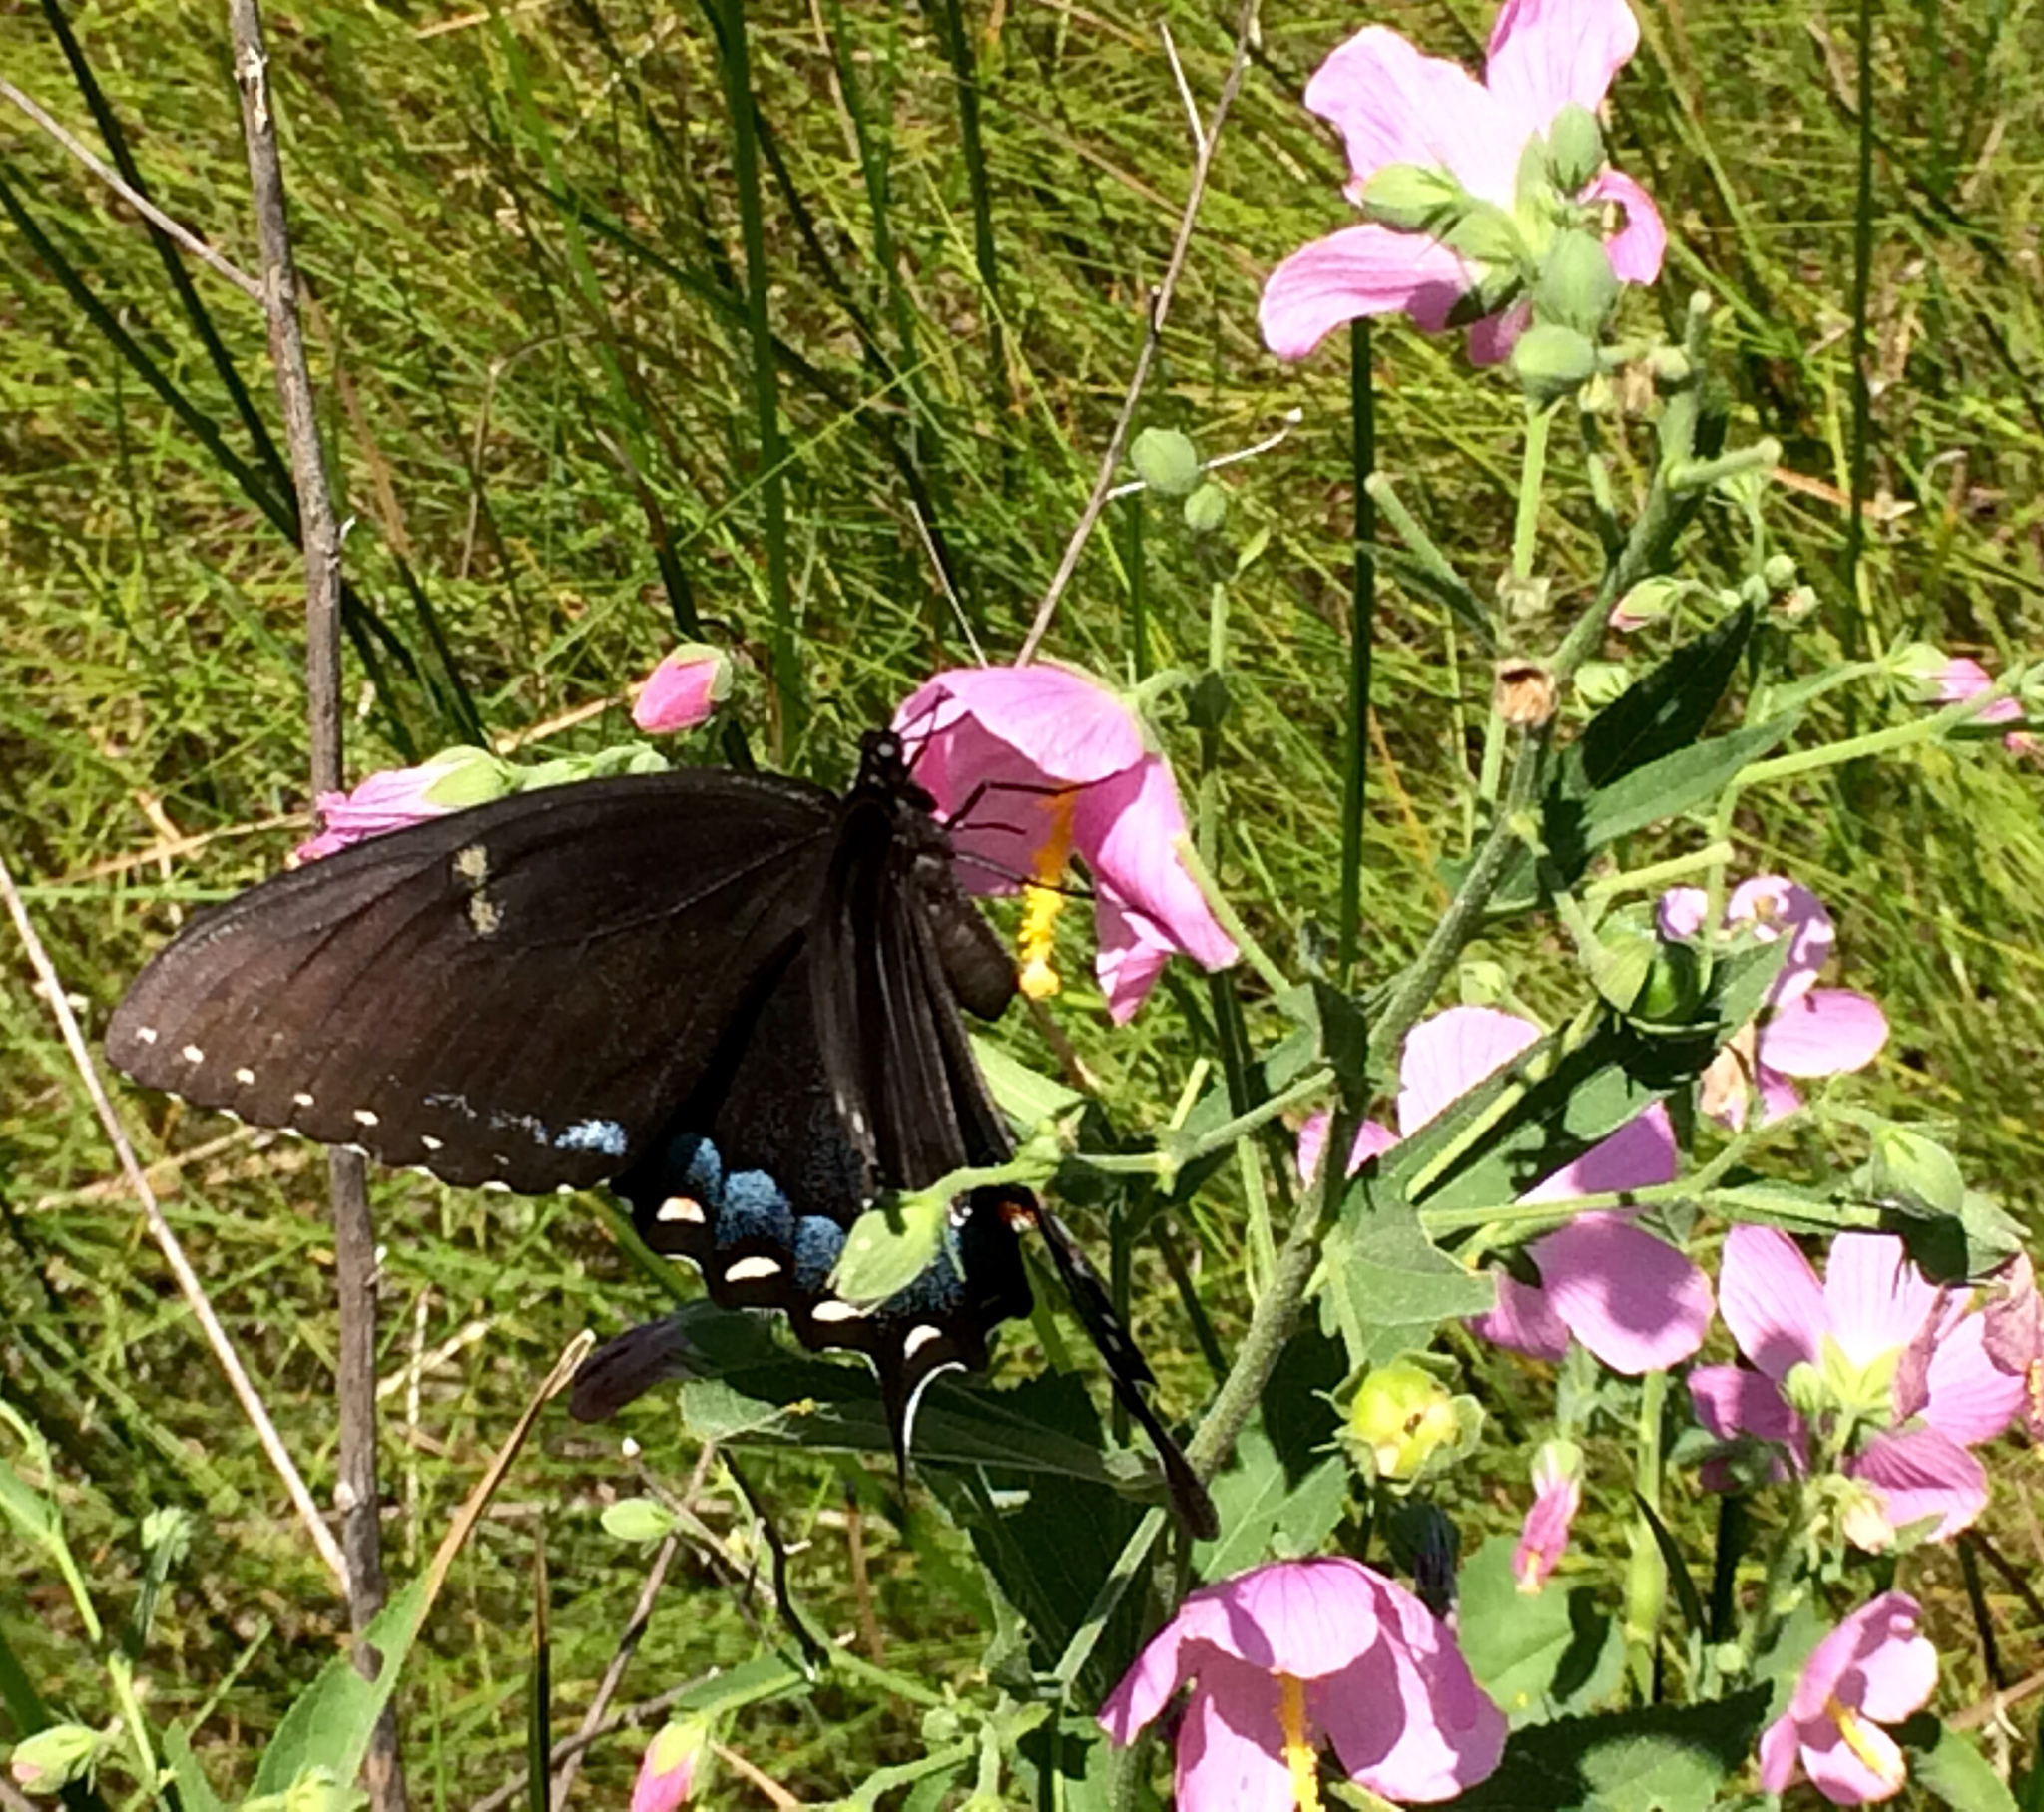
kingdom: Animalia
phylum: Arthropoda
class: Insecta
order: Lepidoptera
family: Papilionidae
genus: Papilio
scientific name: Papilio glaucus
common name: Tiger swallowtail
